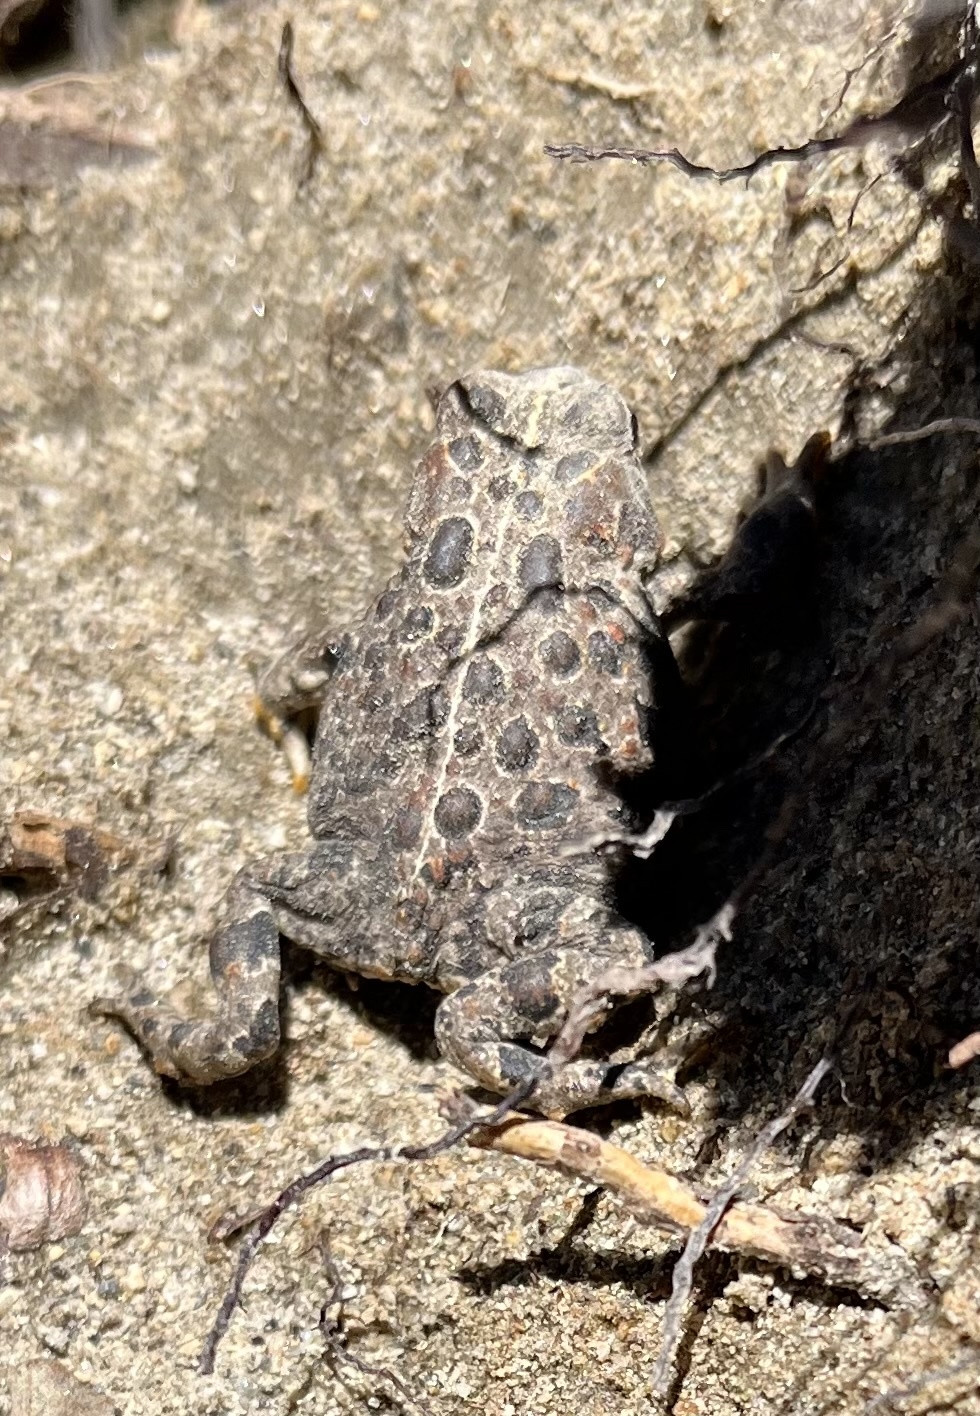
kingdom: Animalia
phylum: Chordata
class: Amphibia
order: Anura
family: Bufonidae
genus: Anaxyrus
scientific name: Anaxyrus canorus
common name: Yosemite toad
